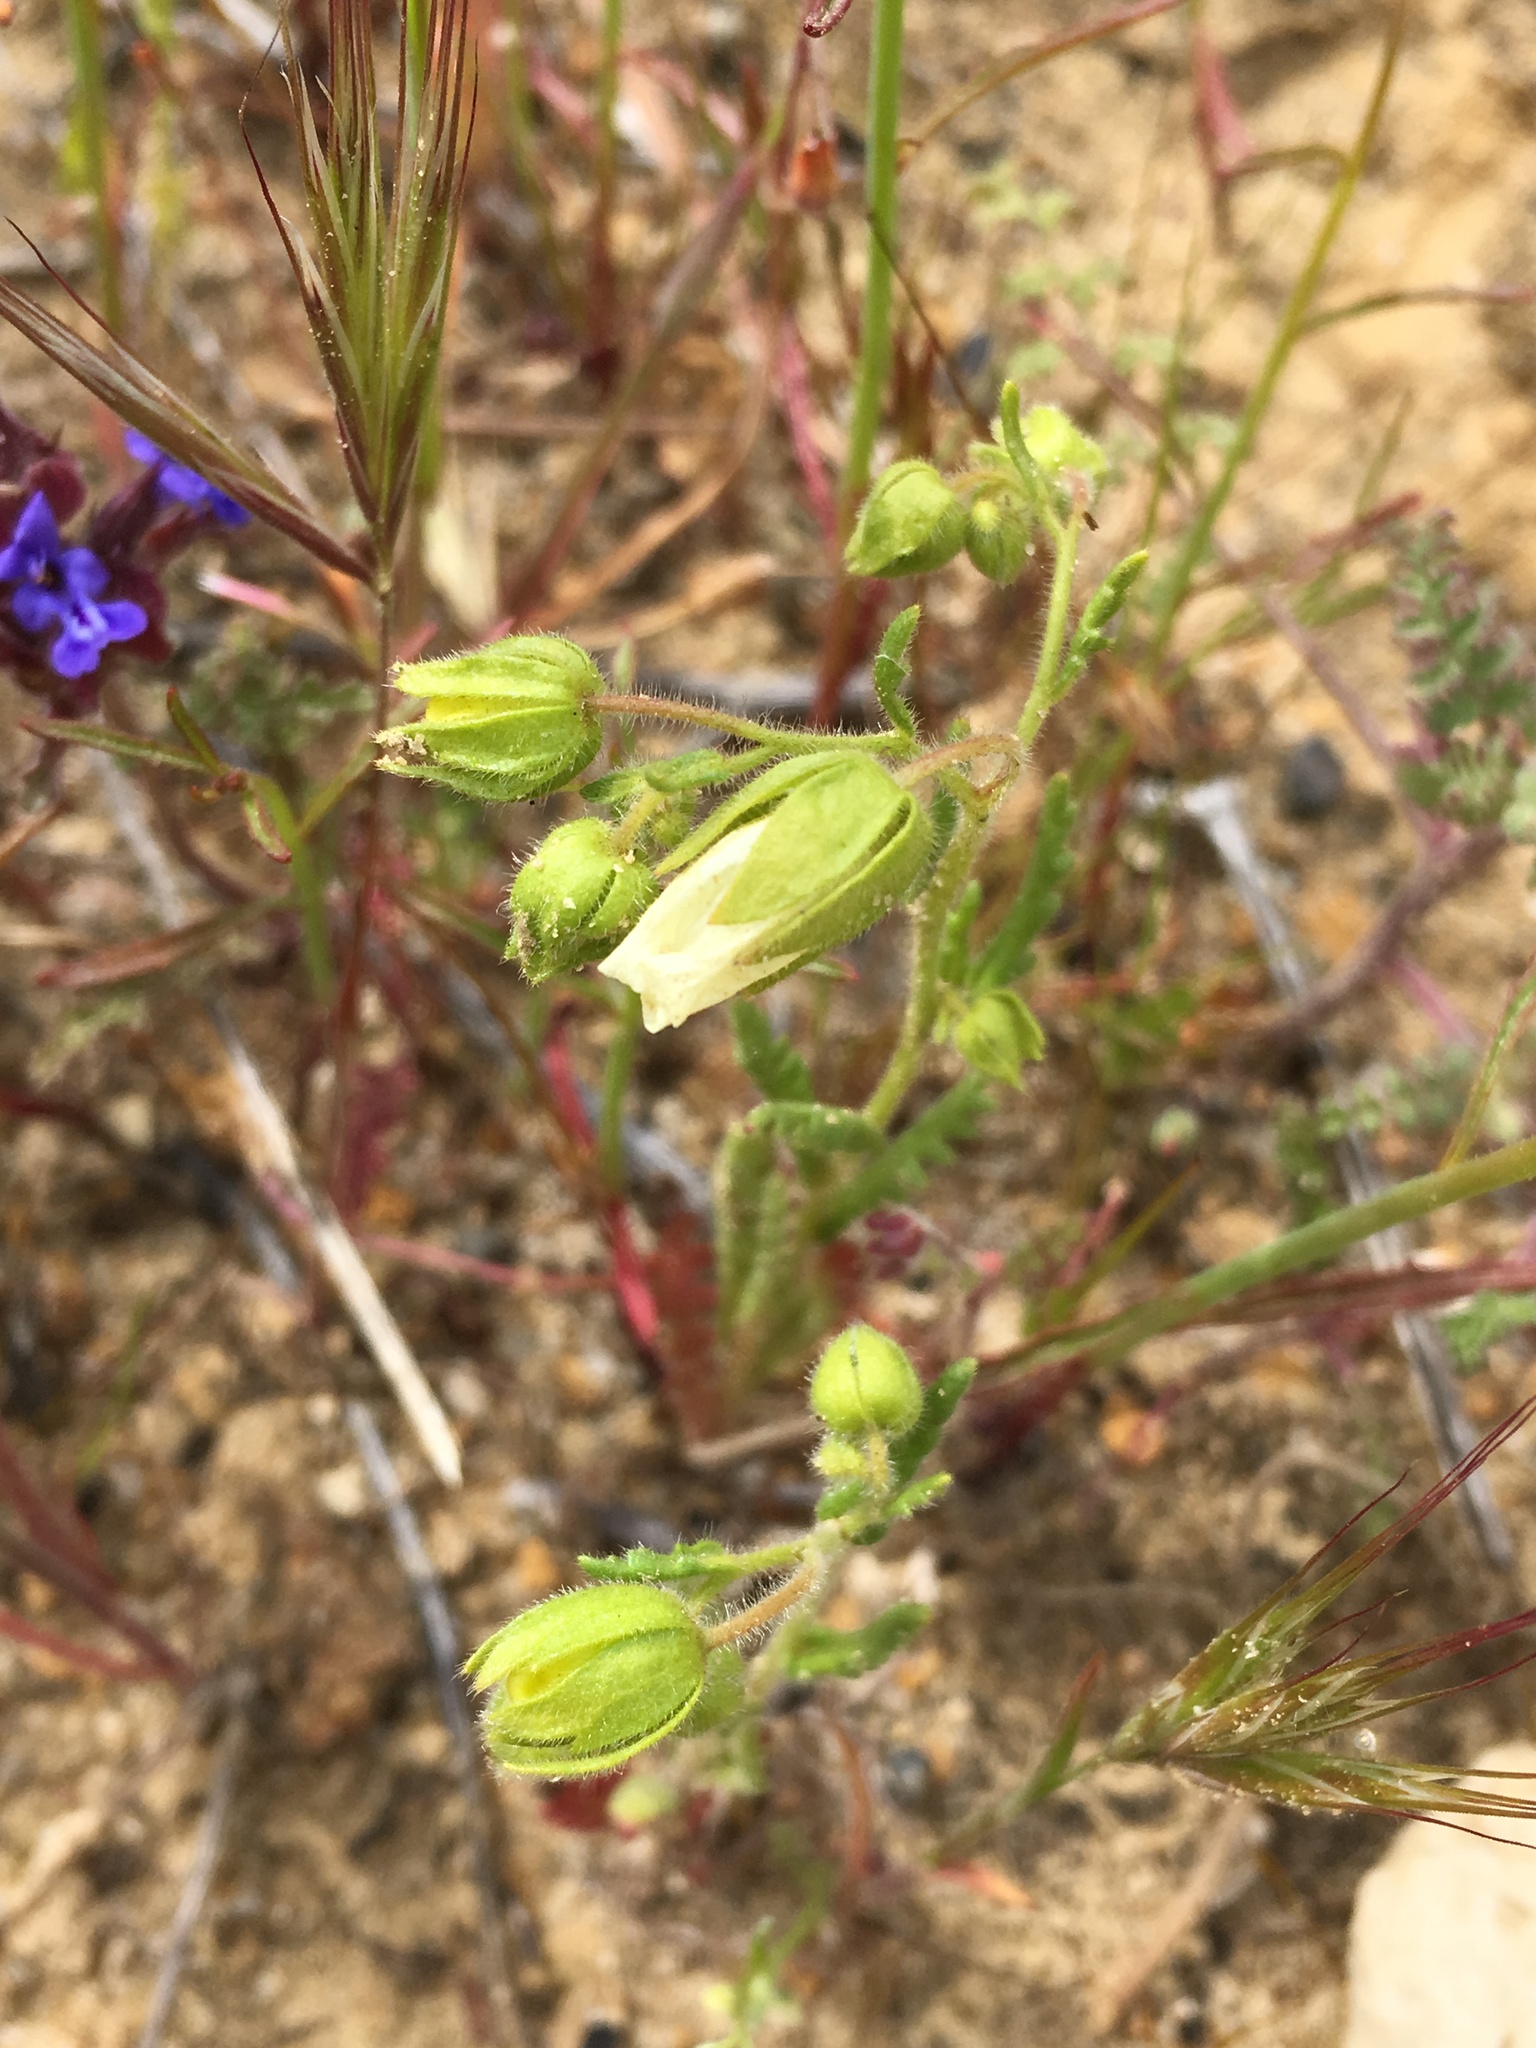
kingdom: Plantae
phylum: Tracheophyta
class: Magnoliopsida
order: Boraginales
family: Hydrophyllaceae
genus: Emmenanthe
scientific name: Emmenanthe penduliflora
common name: Whispering-bells
